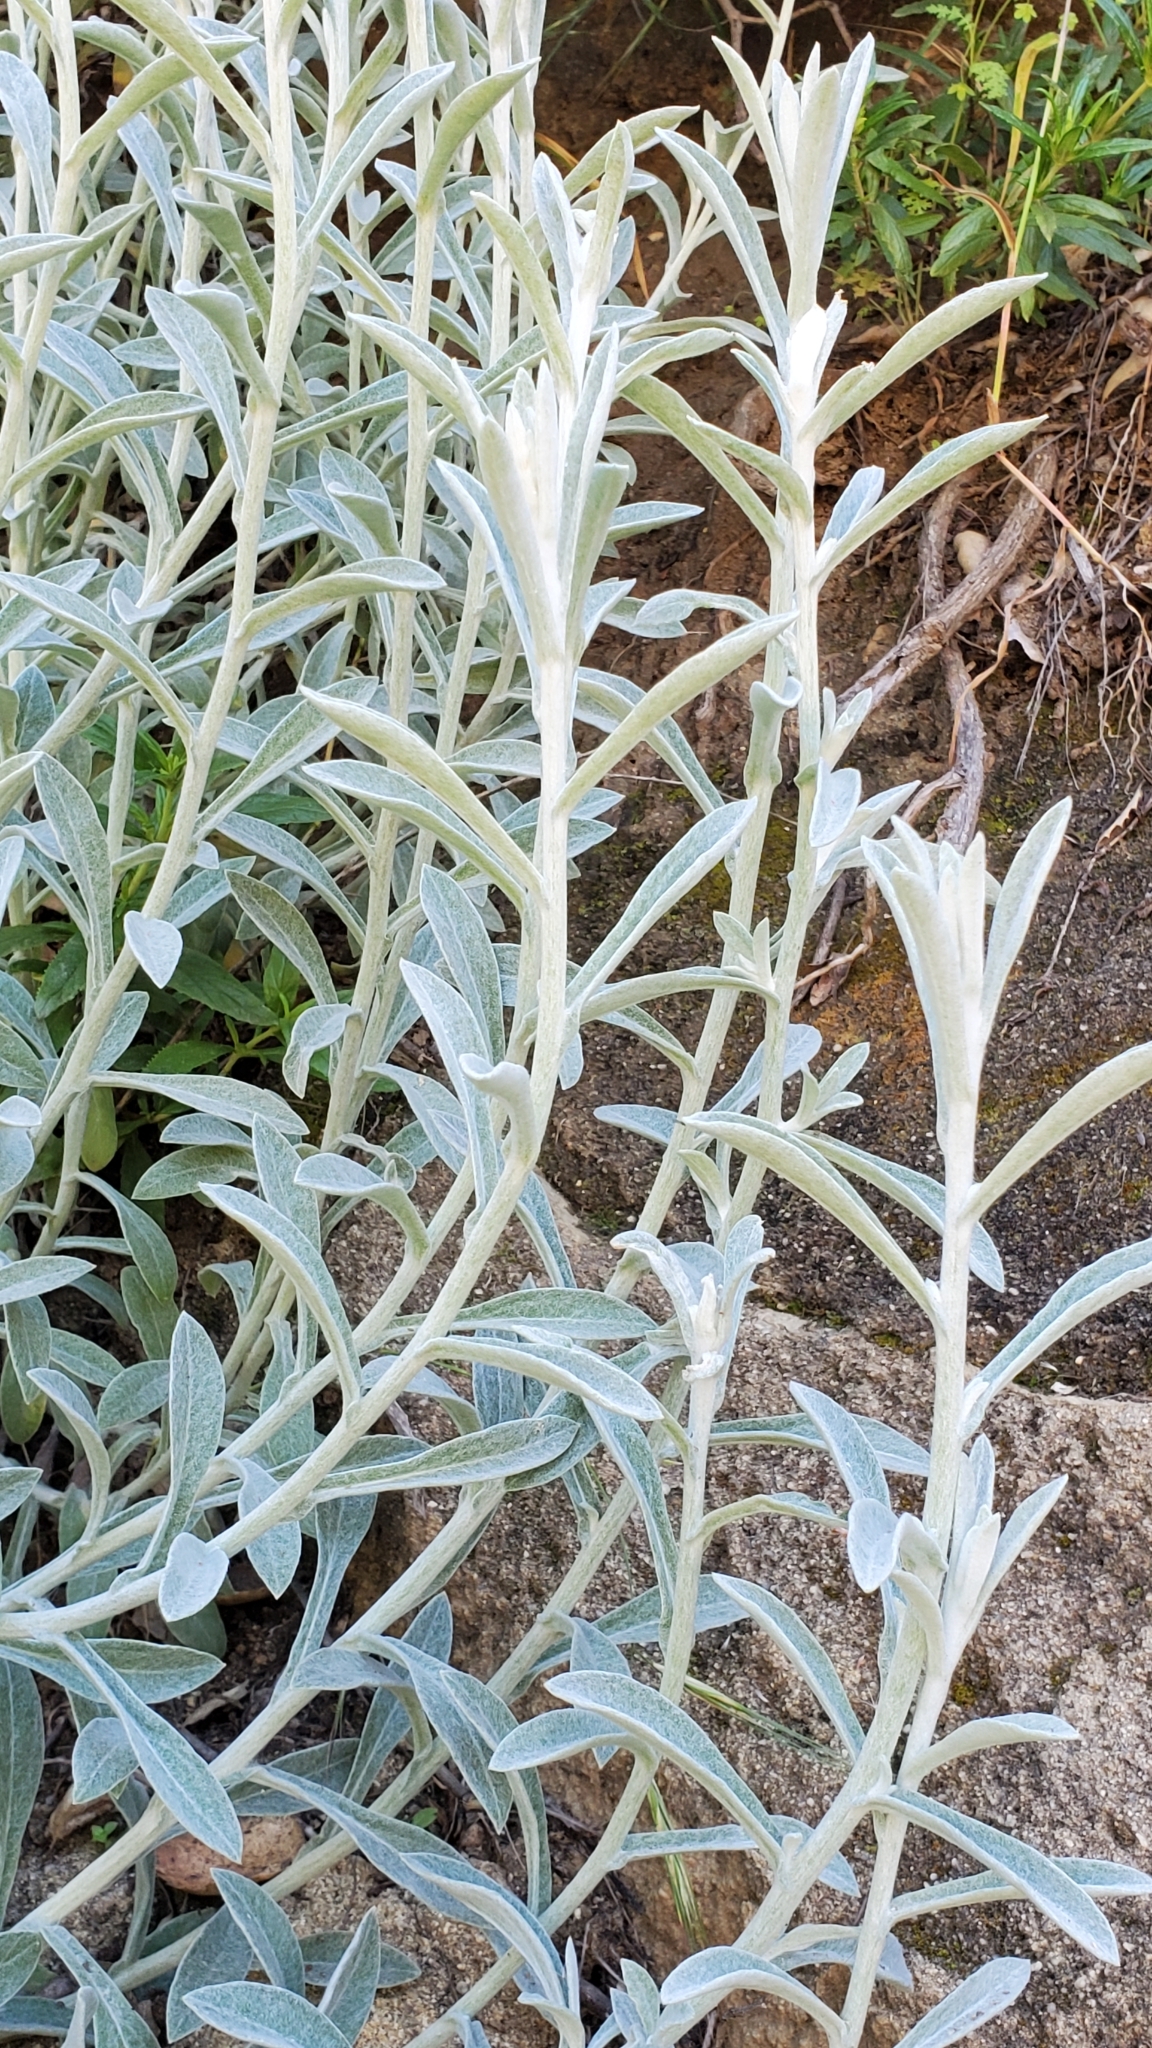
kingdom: Plantae
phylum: Tracheophyta
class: Magnoliopsida
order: Asterales
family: Asteraceae
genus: Pseudognaphalium
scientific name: Pseudognaphalium microcephalum
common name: San diego rabbit-tobacco
